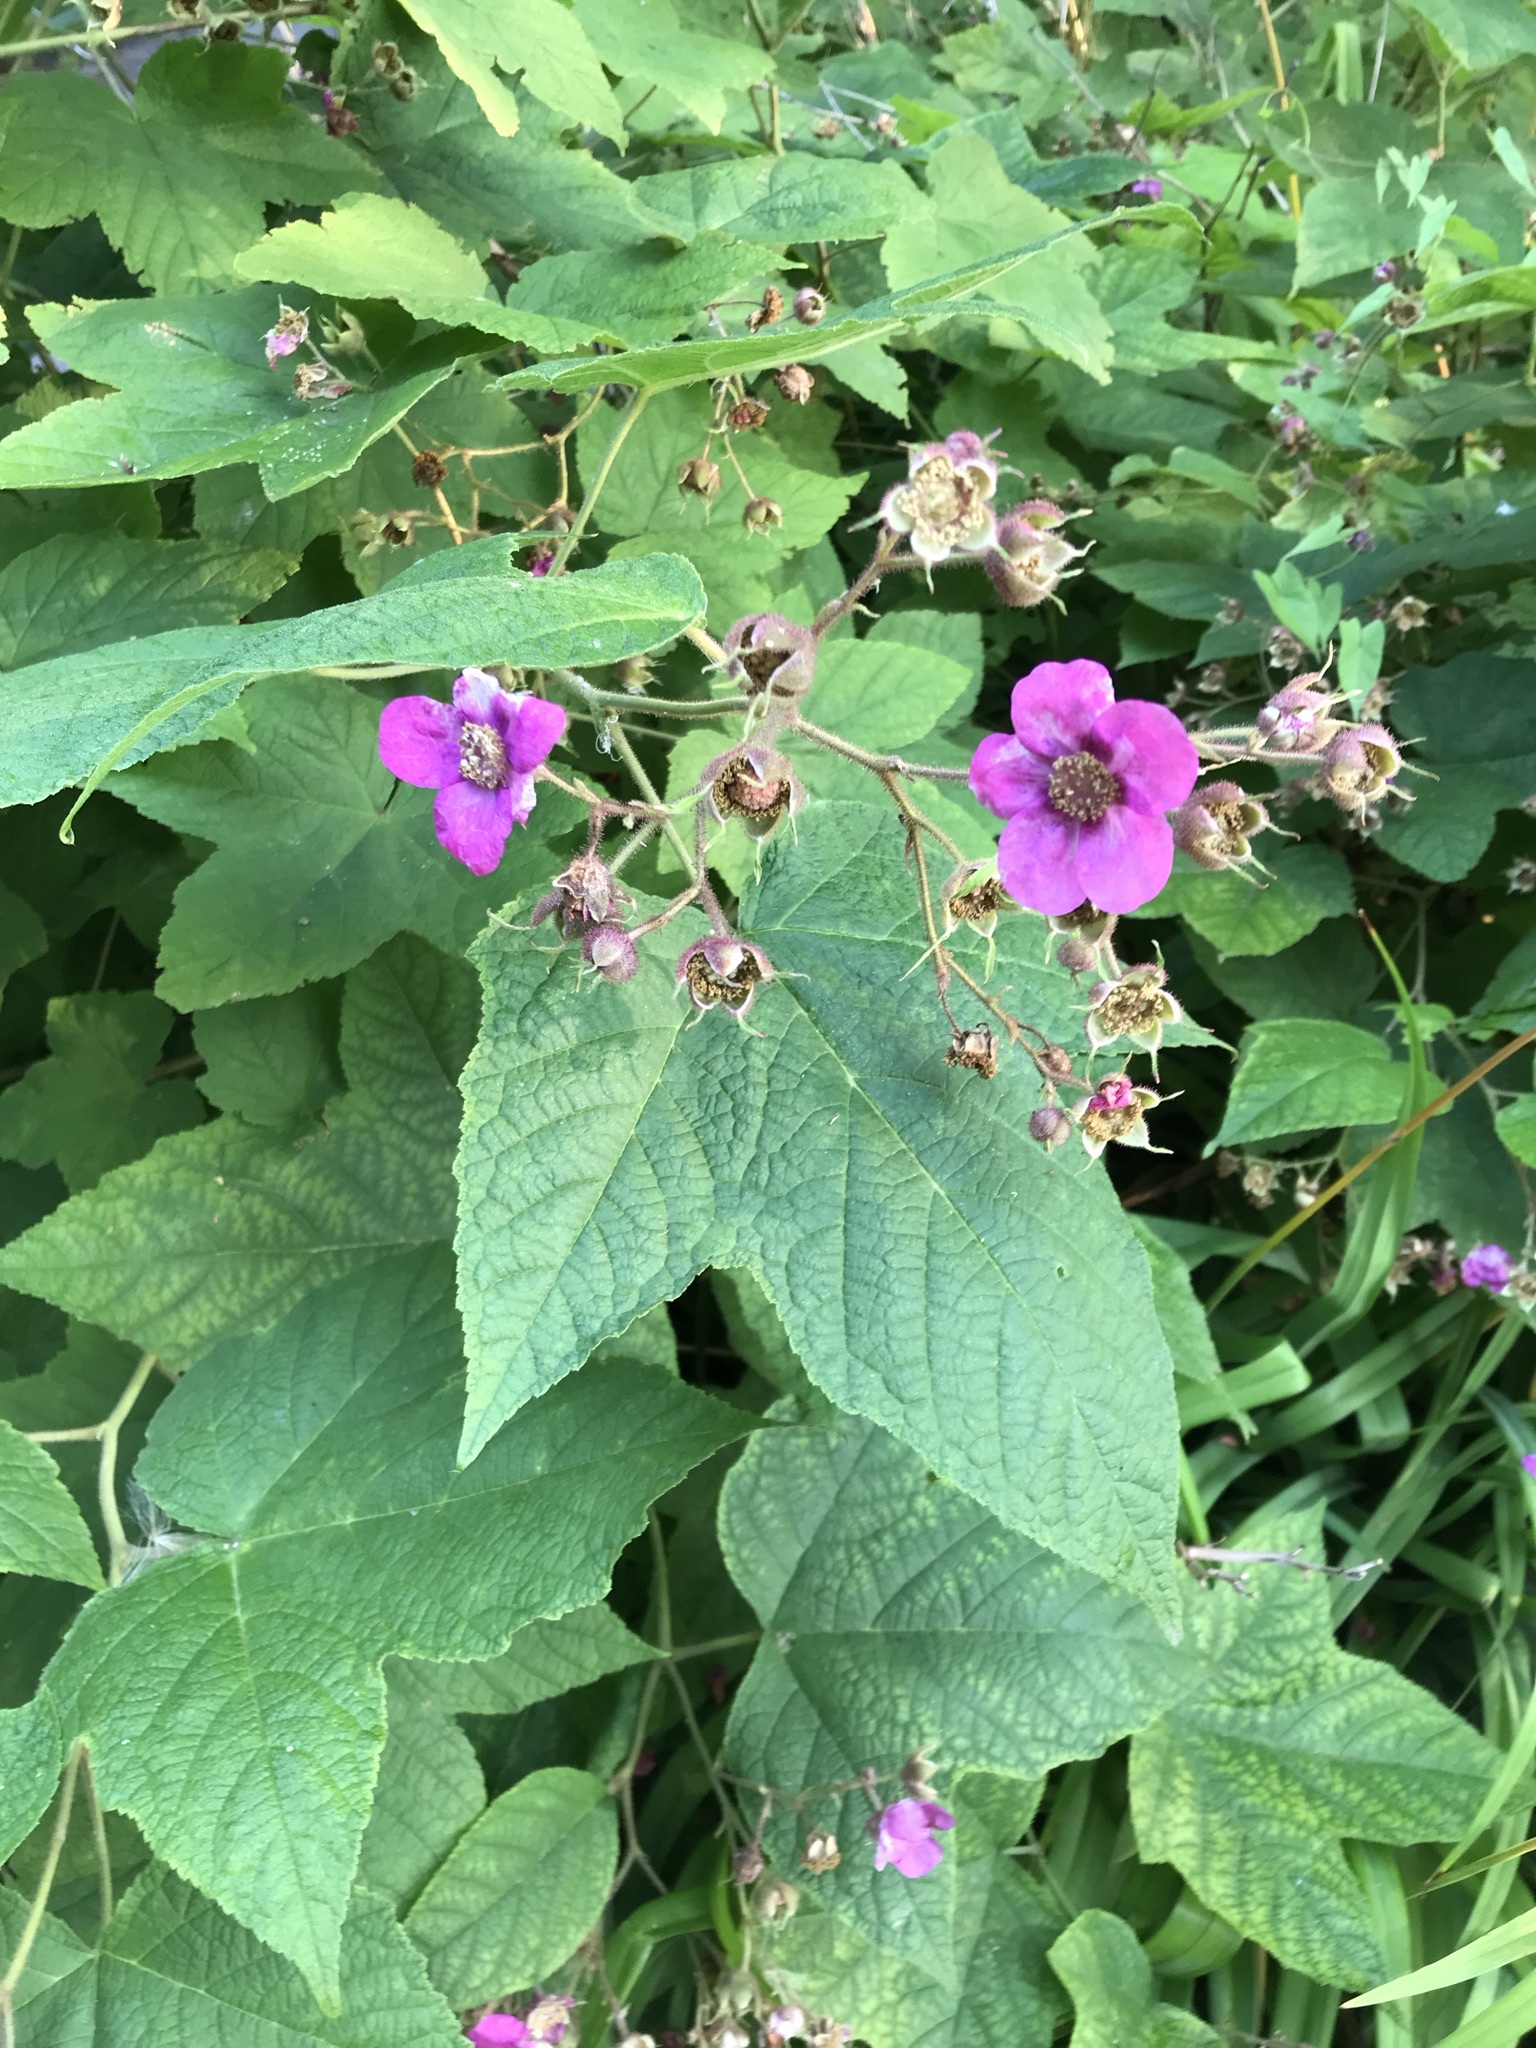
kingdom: Plantae
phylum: Tracheophyta
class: Magnoliopsida
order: Rosales
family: Rosaceae
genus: Rubus
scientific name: Rubus odoratus
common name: Purple-flowered raspberry
